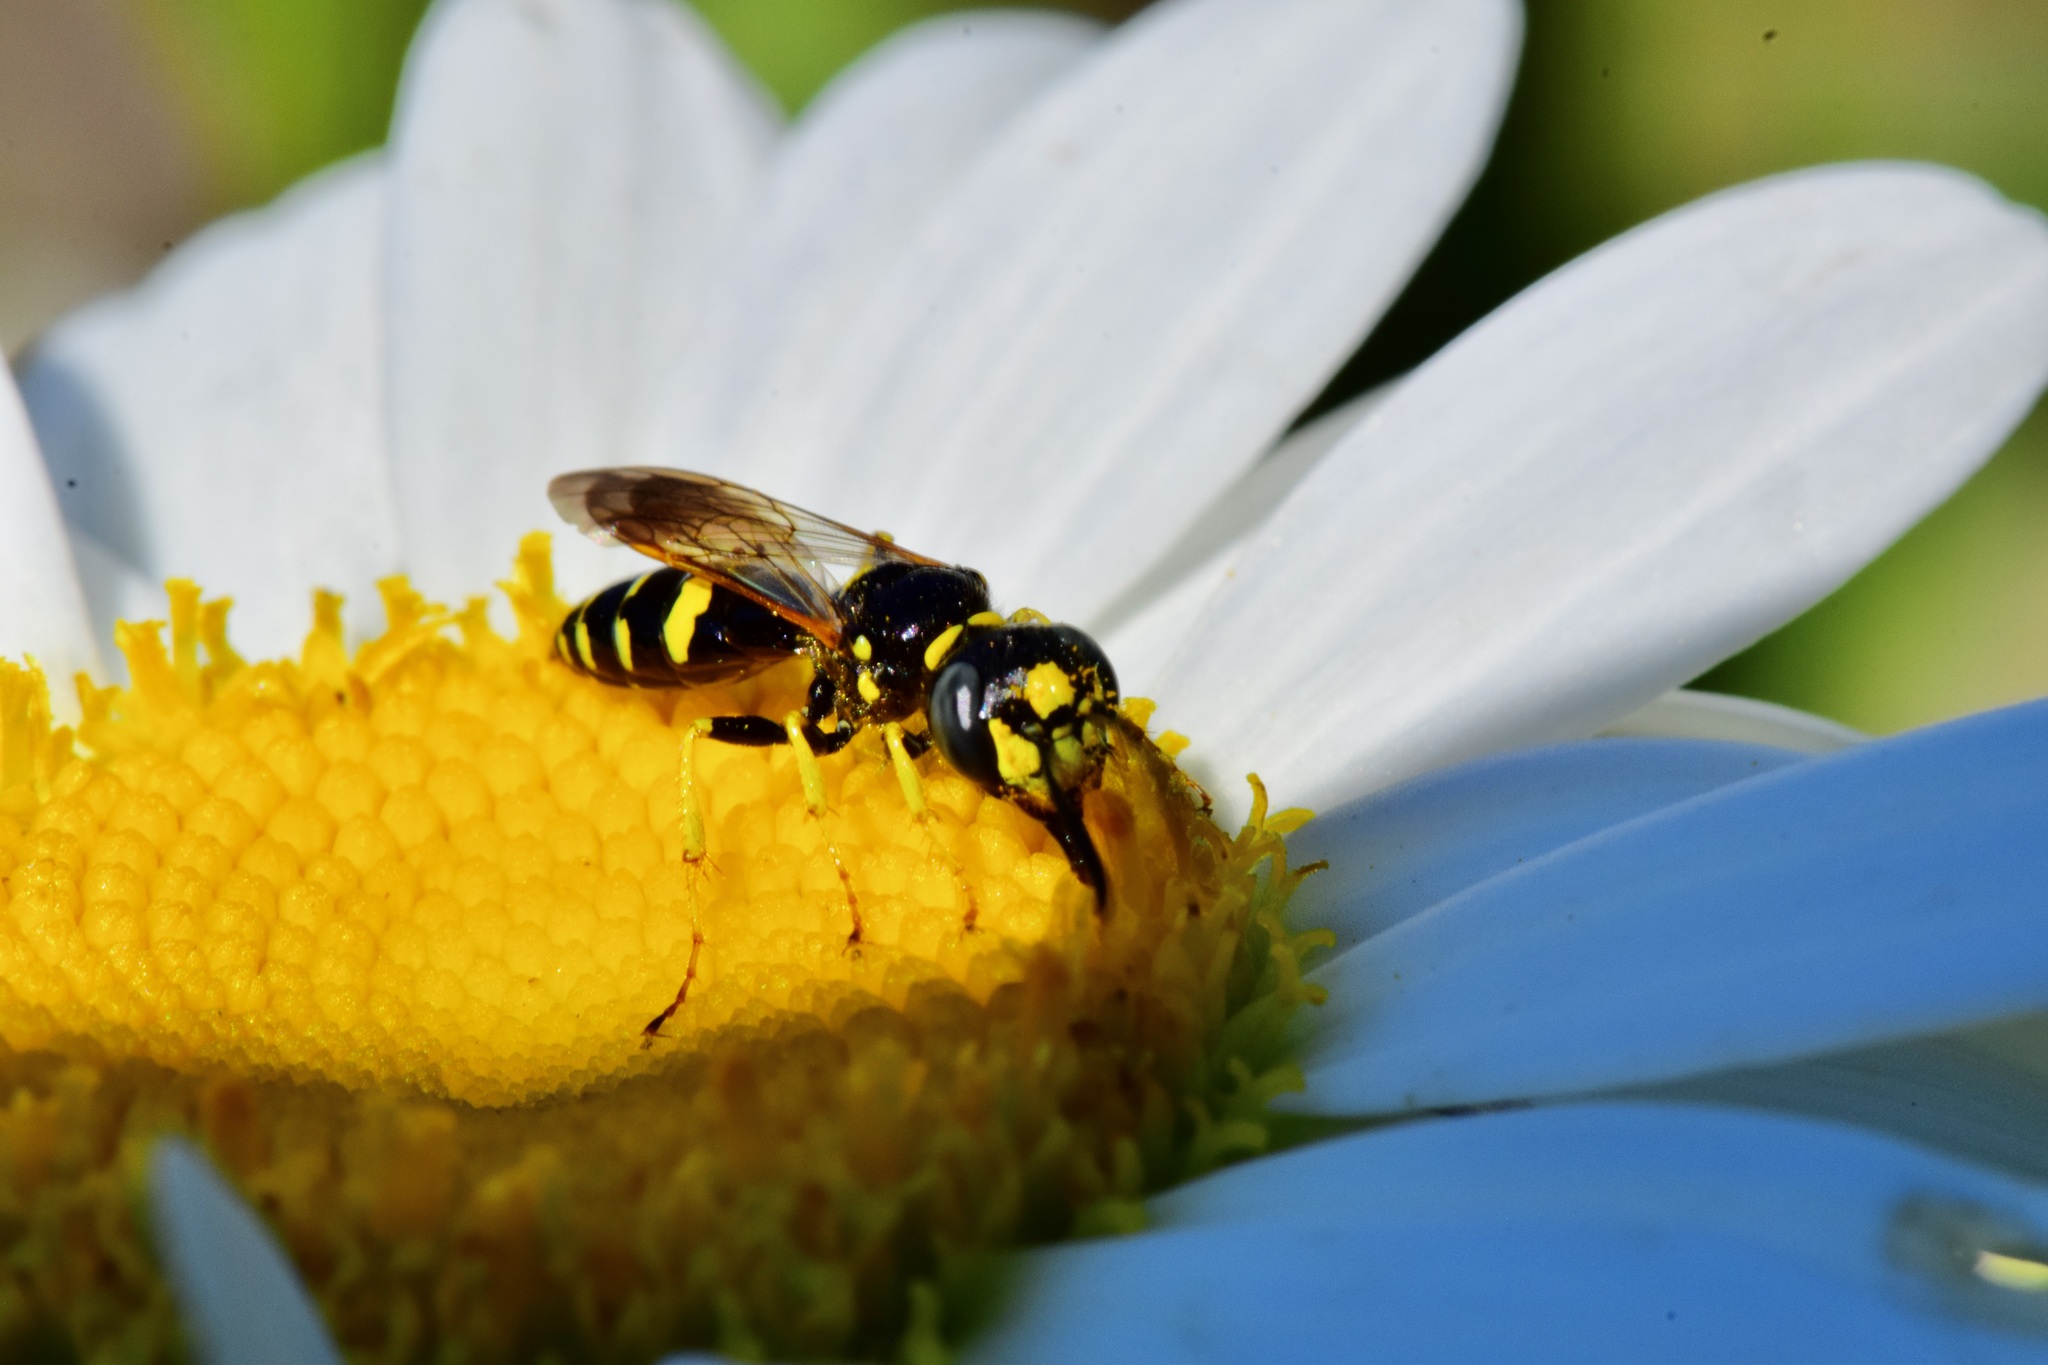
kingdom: Animalia
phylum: Arthropoda
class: Insecta
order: Hymenoptera
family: Crabronidae
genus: Philanthus
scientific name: Philanthus bilunatus
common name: Two moons beewolf
